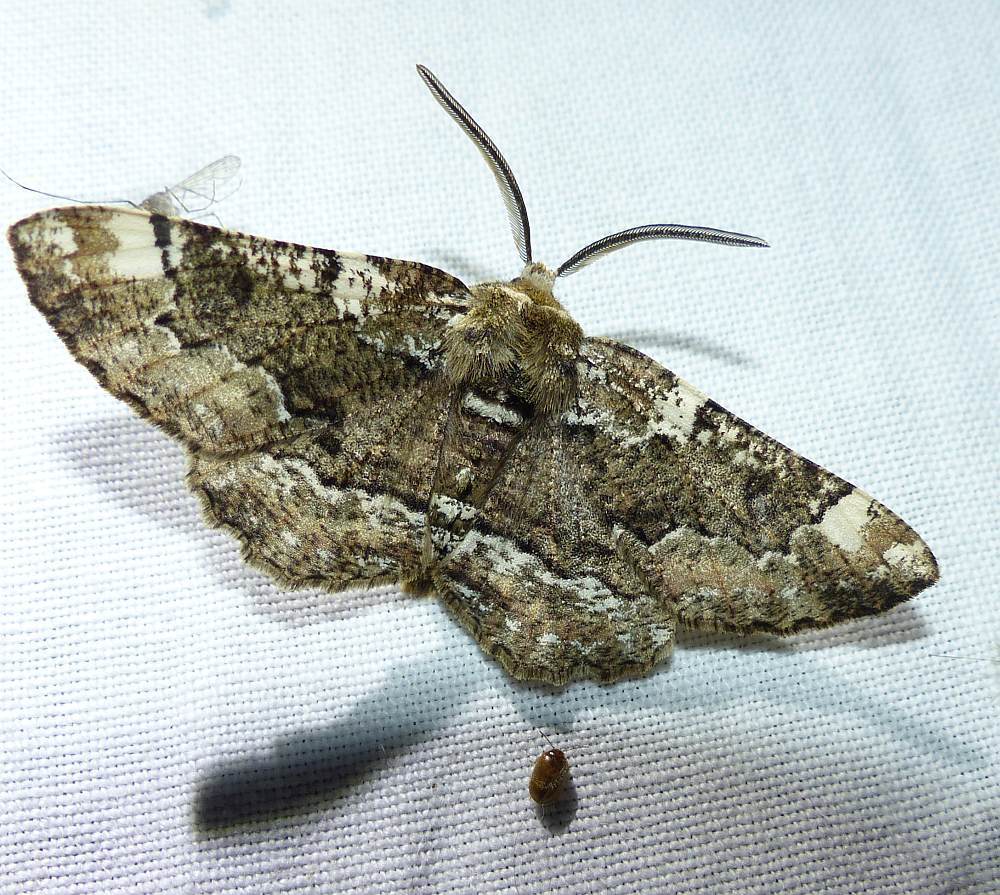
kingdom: Animalia
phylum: Arthropoda
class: Insecta
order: Lepidoptera
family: Geometridae
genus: Phaeoura
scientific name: Phaeoura quernaria
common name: Oak beauty
